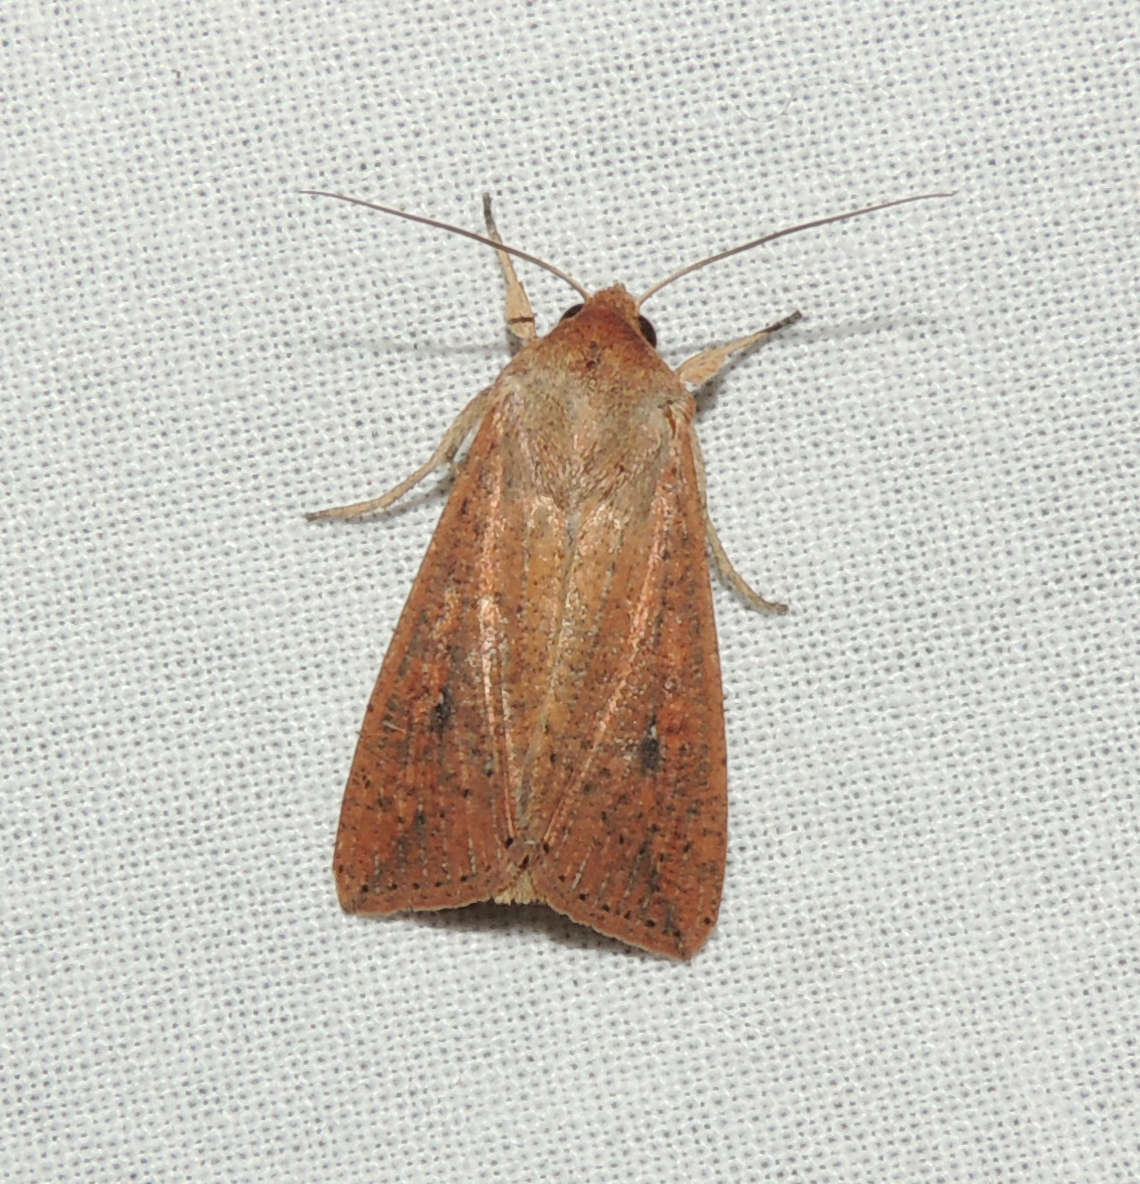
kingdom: Animalia
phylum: Arthropoda
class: Insecta
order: Lepidoptera
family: Noctuidae
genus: Mythimna
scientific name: Mythimna convecta
